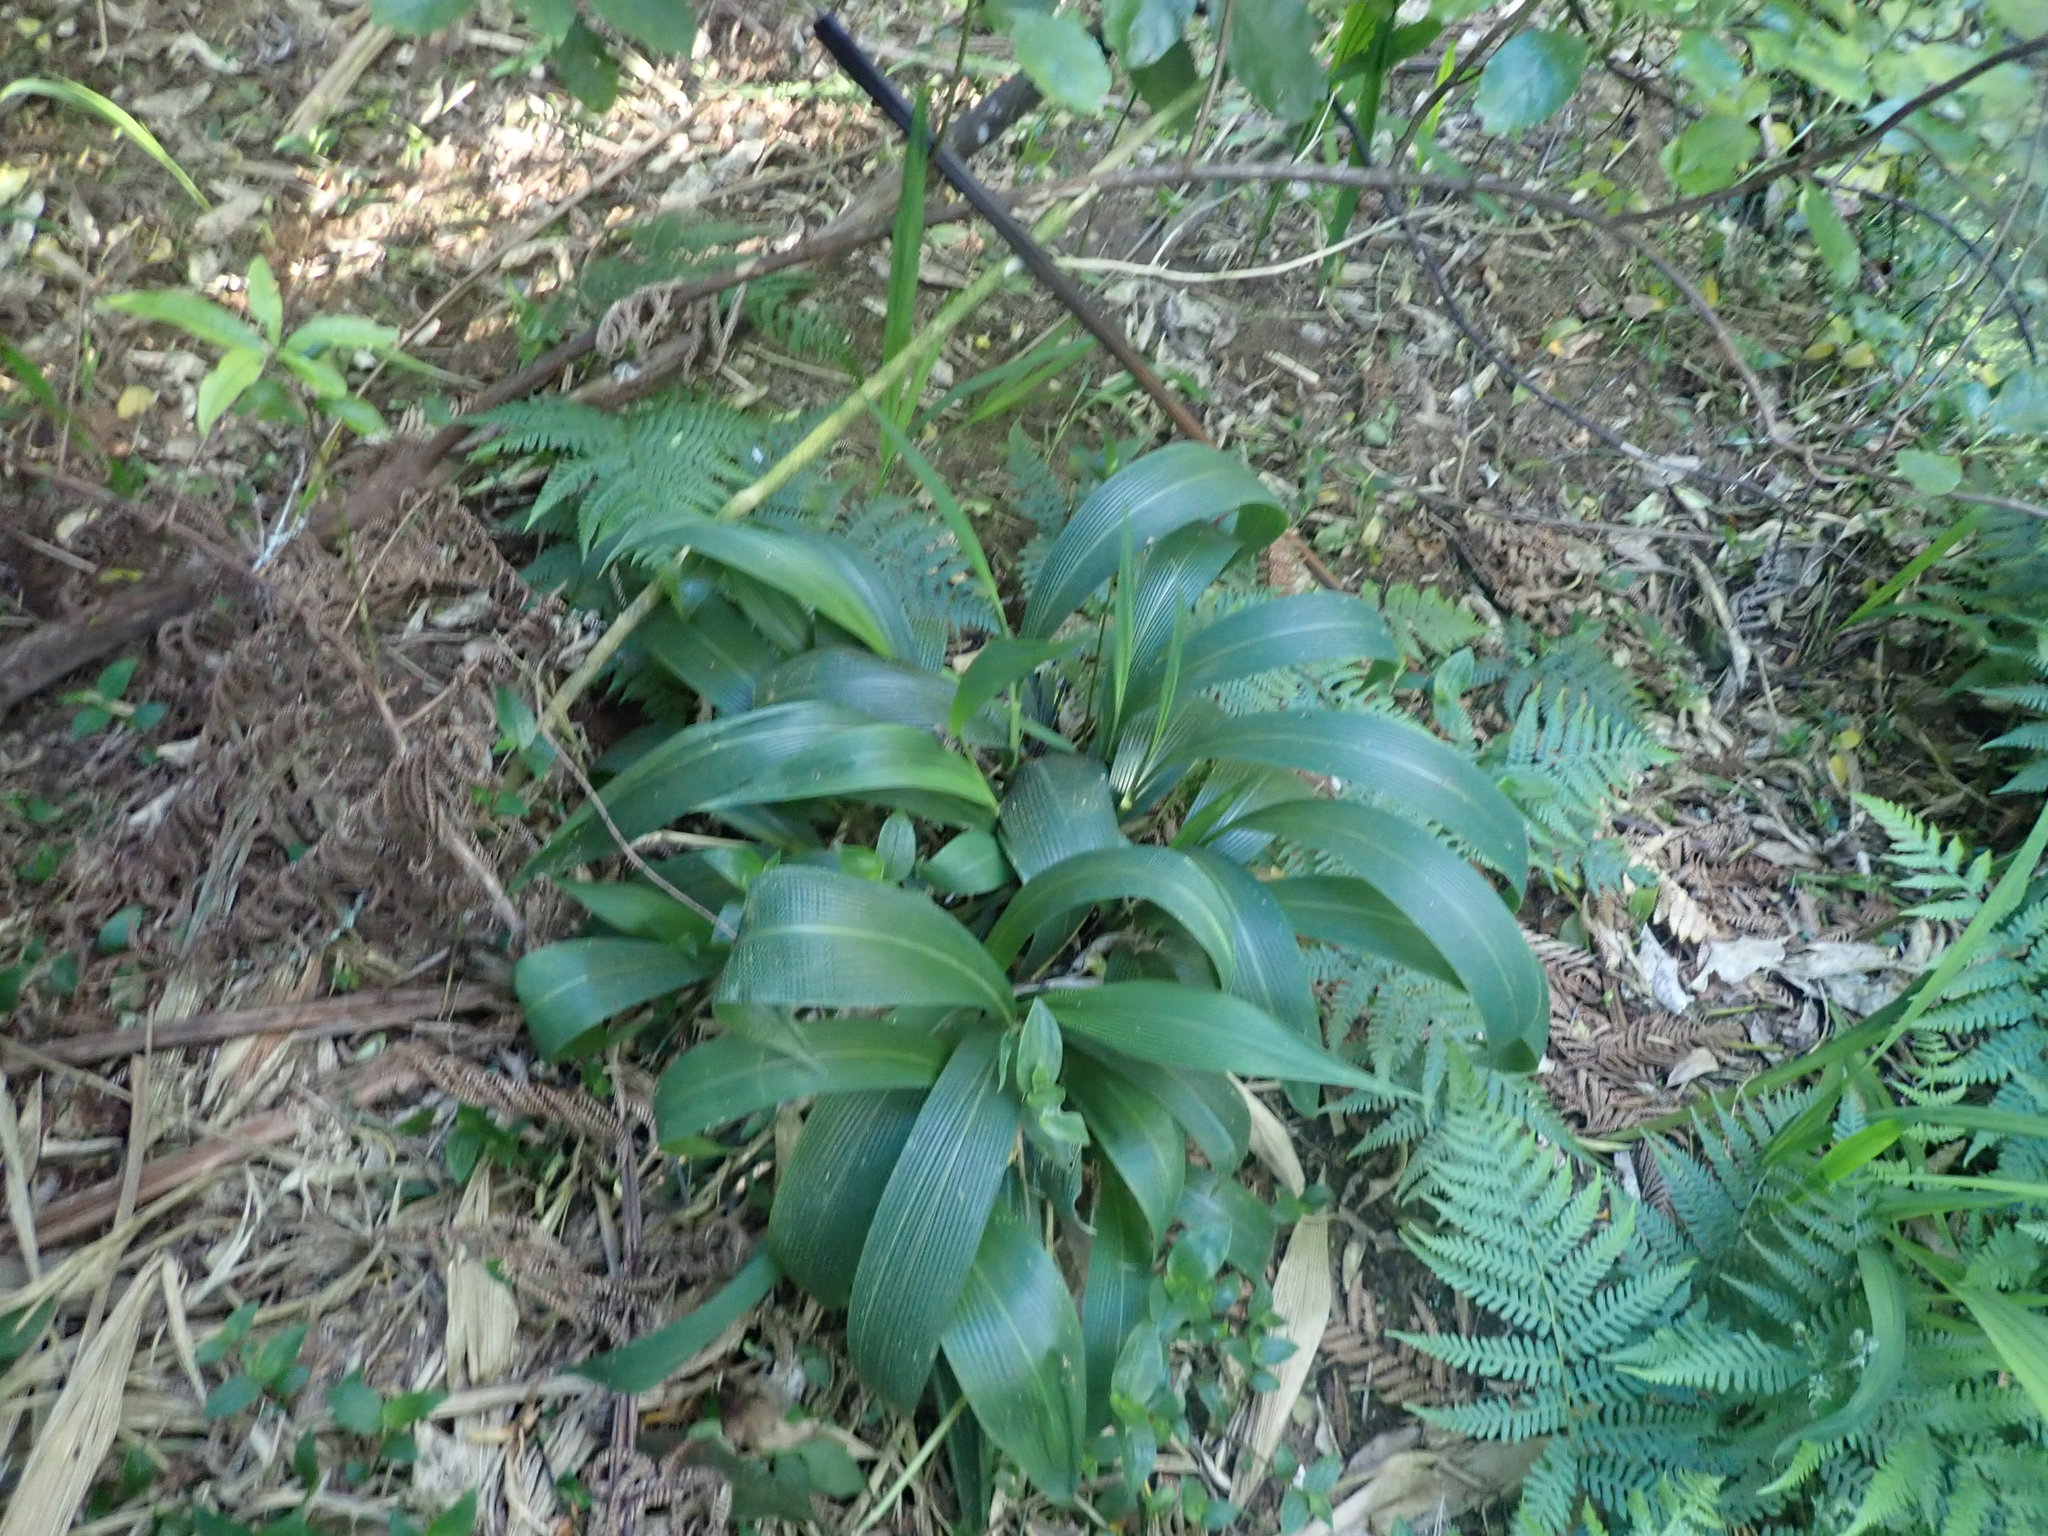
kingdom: Plantae
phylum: Tracheophyta
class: Liliopsida
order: Poales
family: Poaceae
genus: Setaria
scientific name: Setaria palmifolia
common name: Broadleaved bristlegrass
